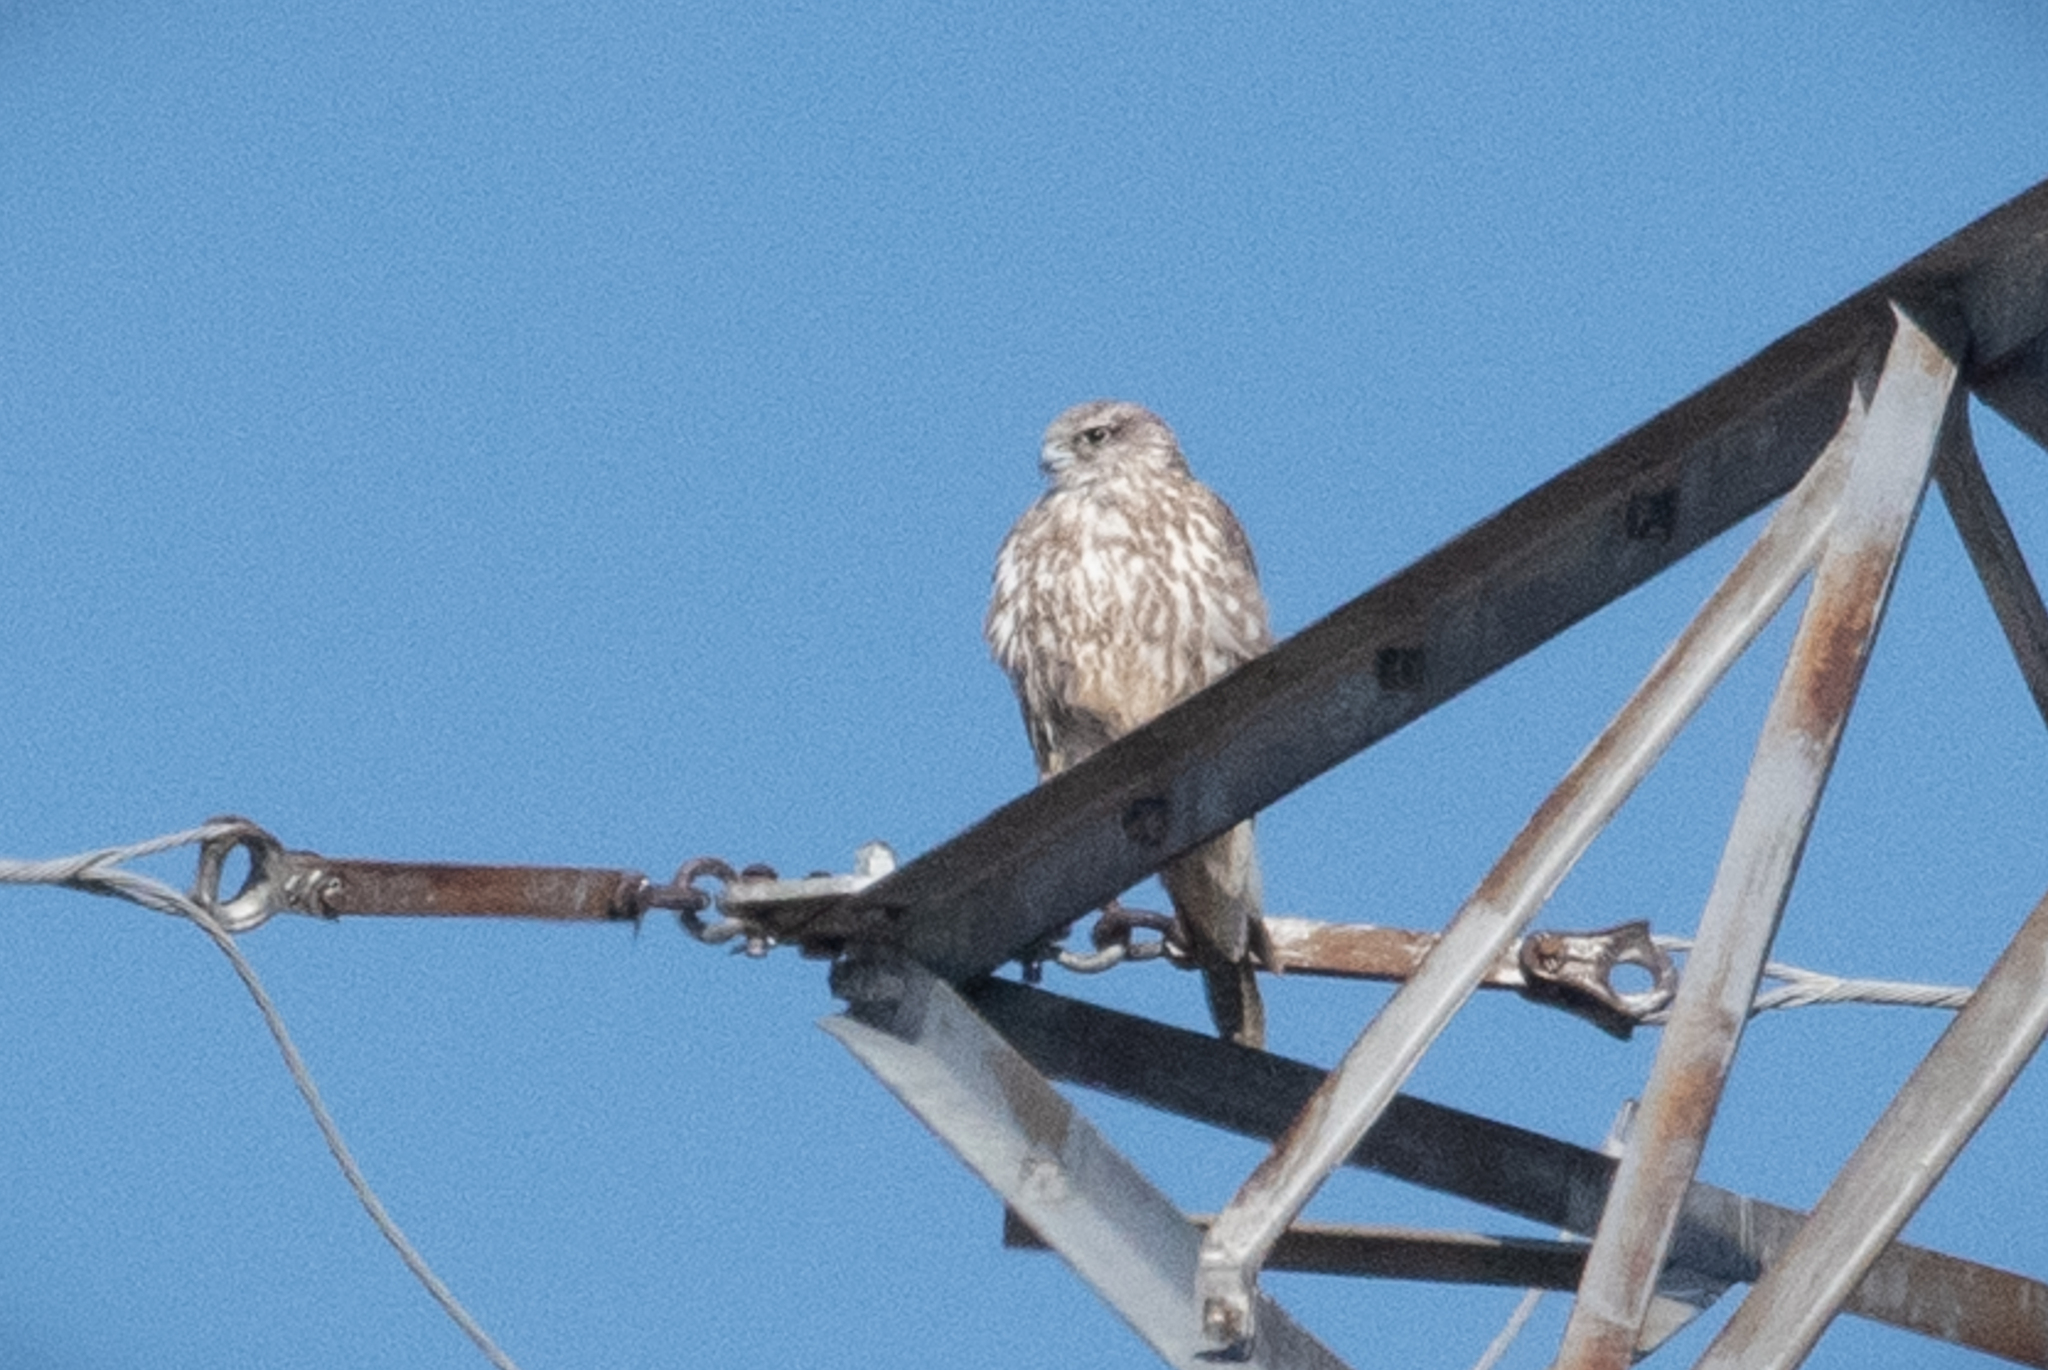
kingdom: Animalia
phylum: Chordata
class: Aves
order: Falconiformes
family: Falconidae
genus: Falco
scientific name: Falco rusticolus
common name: Gyrfalcon
